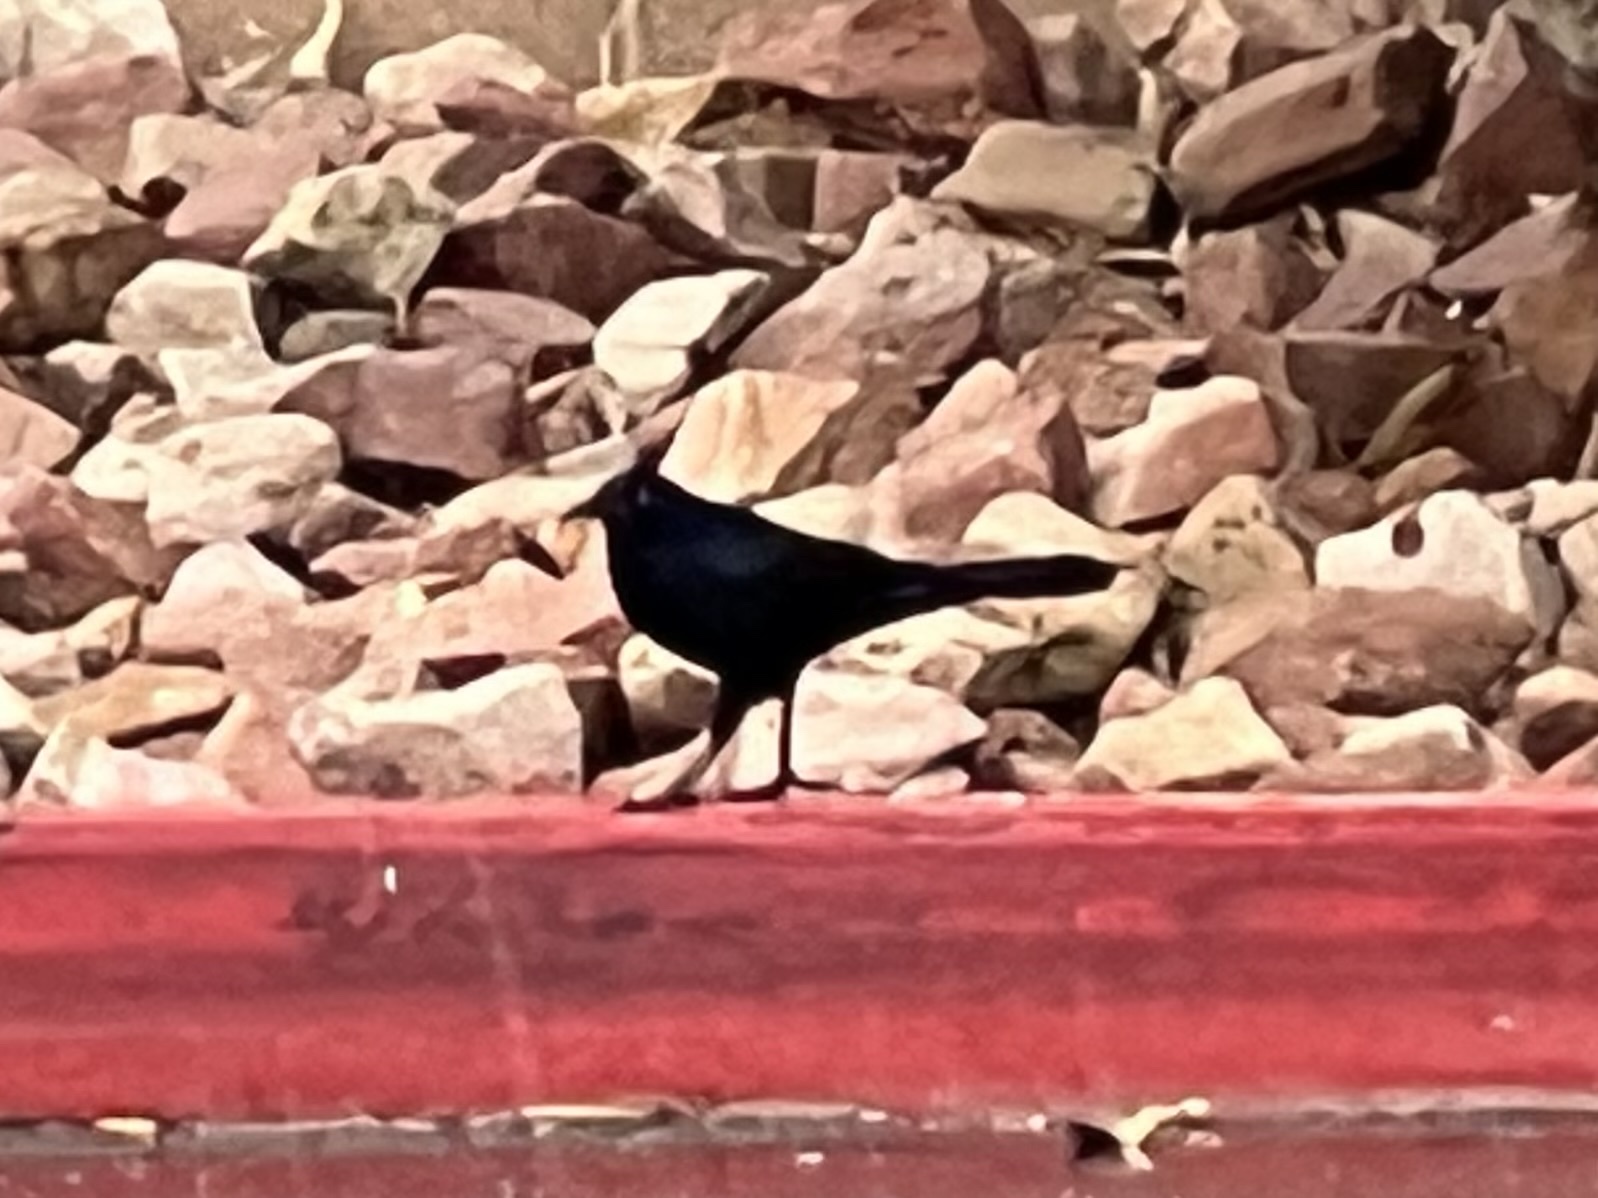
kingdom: Animalia
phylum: Chordata
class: Aves
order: Passeriformes
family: Icteridae
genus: Quiscalus
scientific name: Quiscalus mexicanus
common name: Great-tailed grackle
